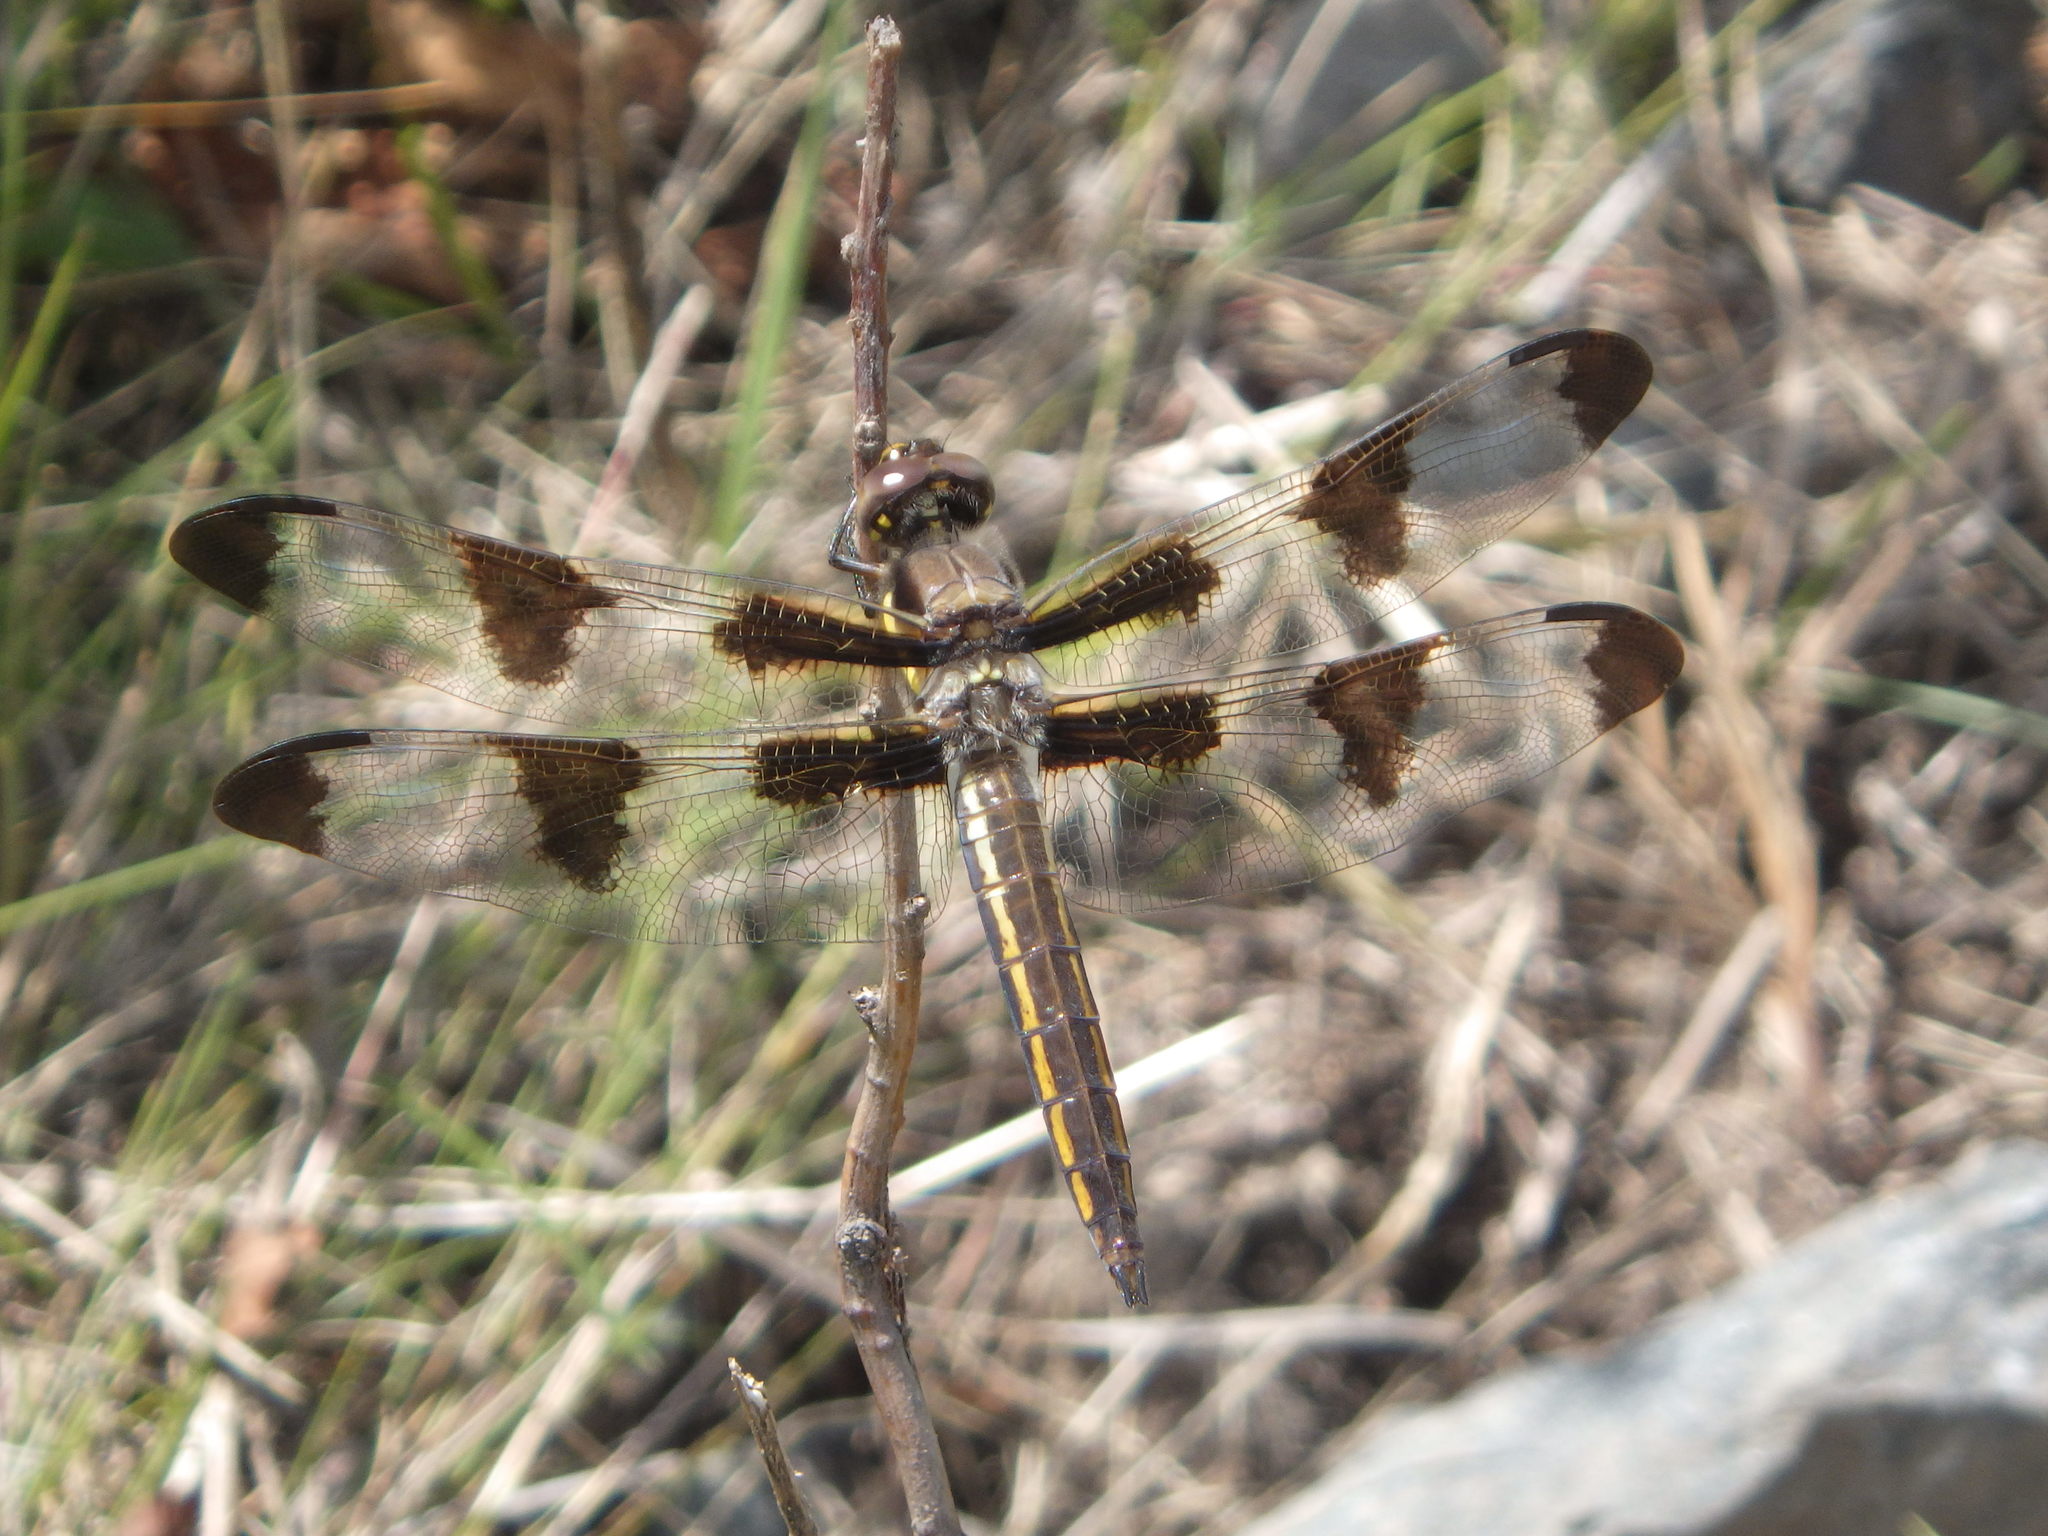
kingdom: Animalia
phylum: Arthropoda
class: Insecta
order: Odonata
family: Libellulidae
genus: Libellula
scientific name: Libellula pulchella
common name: Twelve-spotted skimmer
